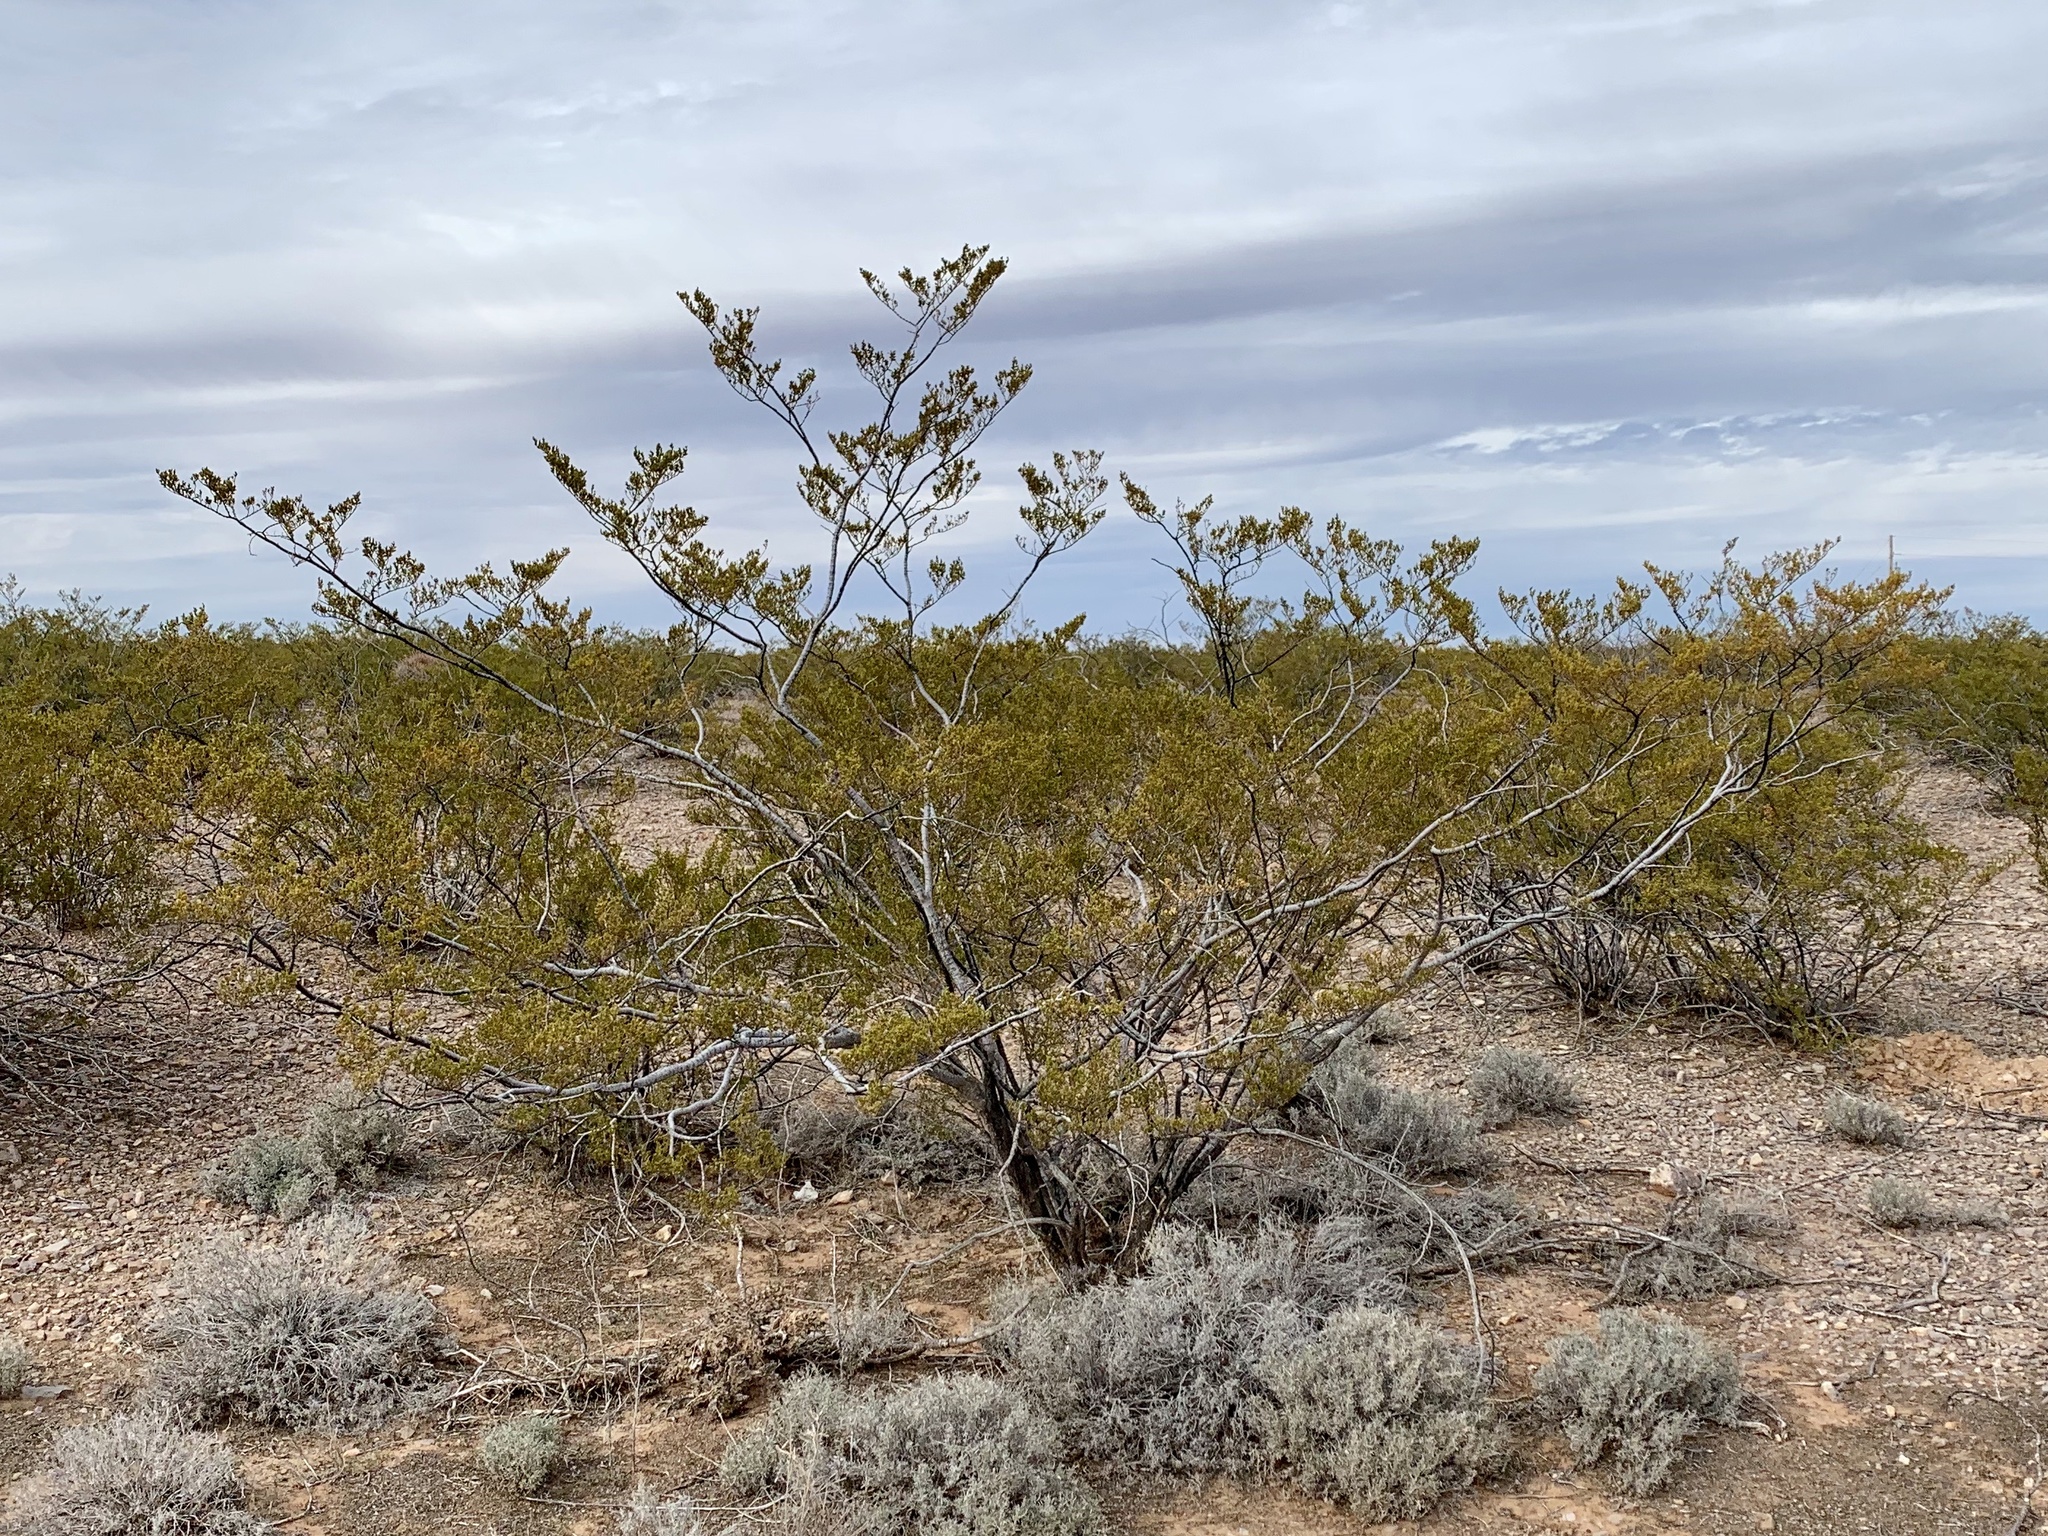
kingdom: Plantae
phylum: Tracheophyta
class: Magnoliopsida
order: Zygophyllales
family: Zygophyllaceae
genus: Larrea
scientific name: Larrea tridentata
